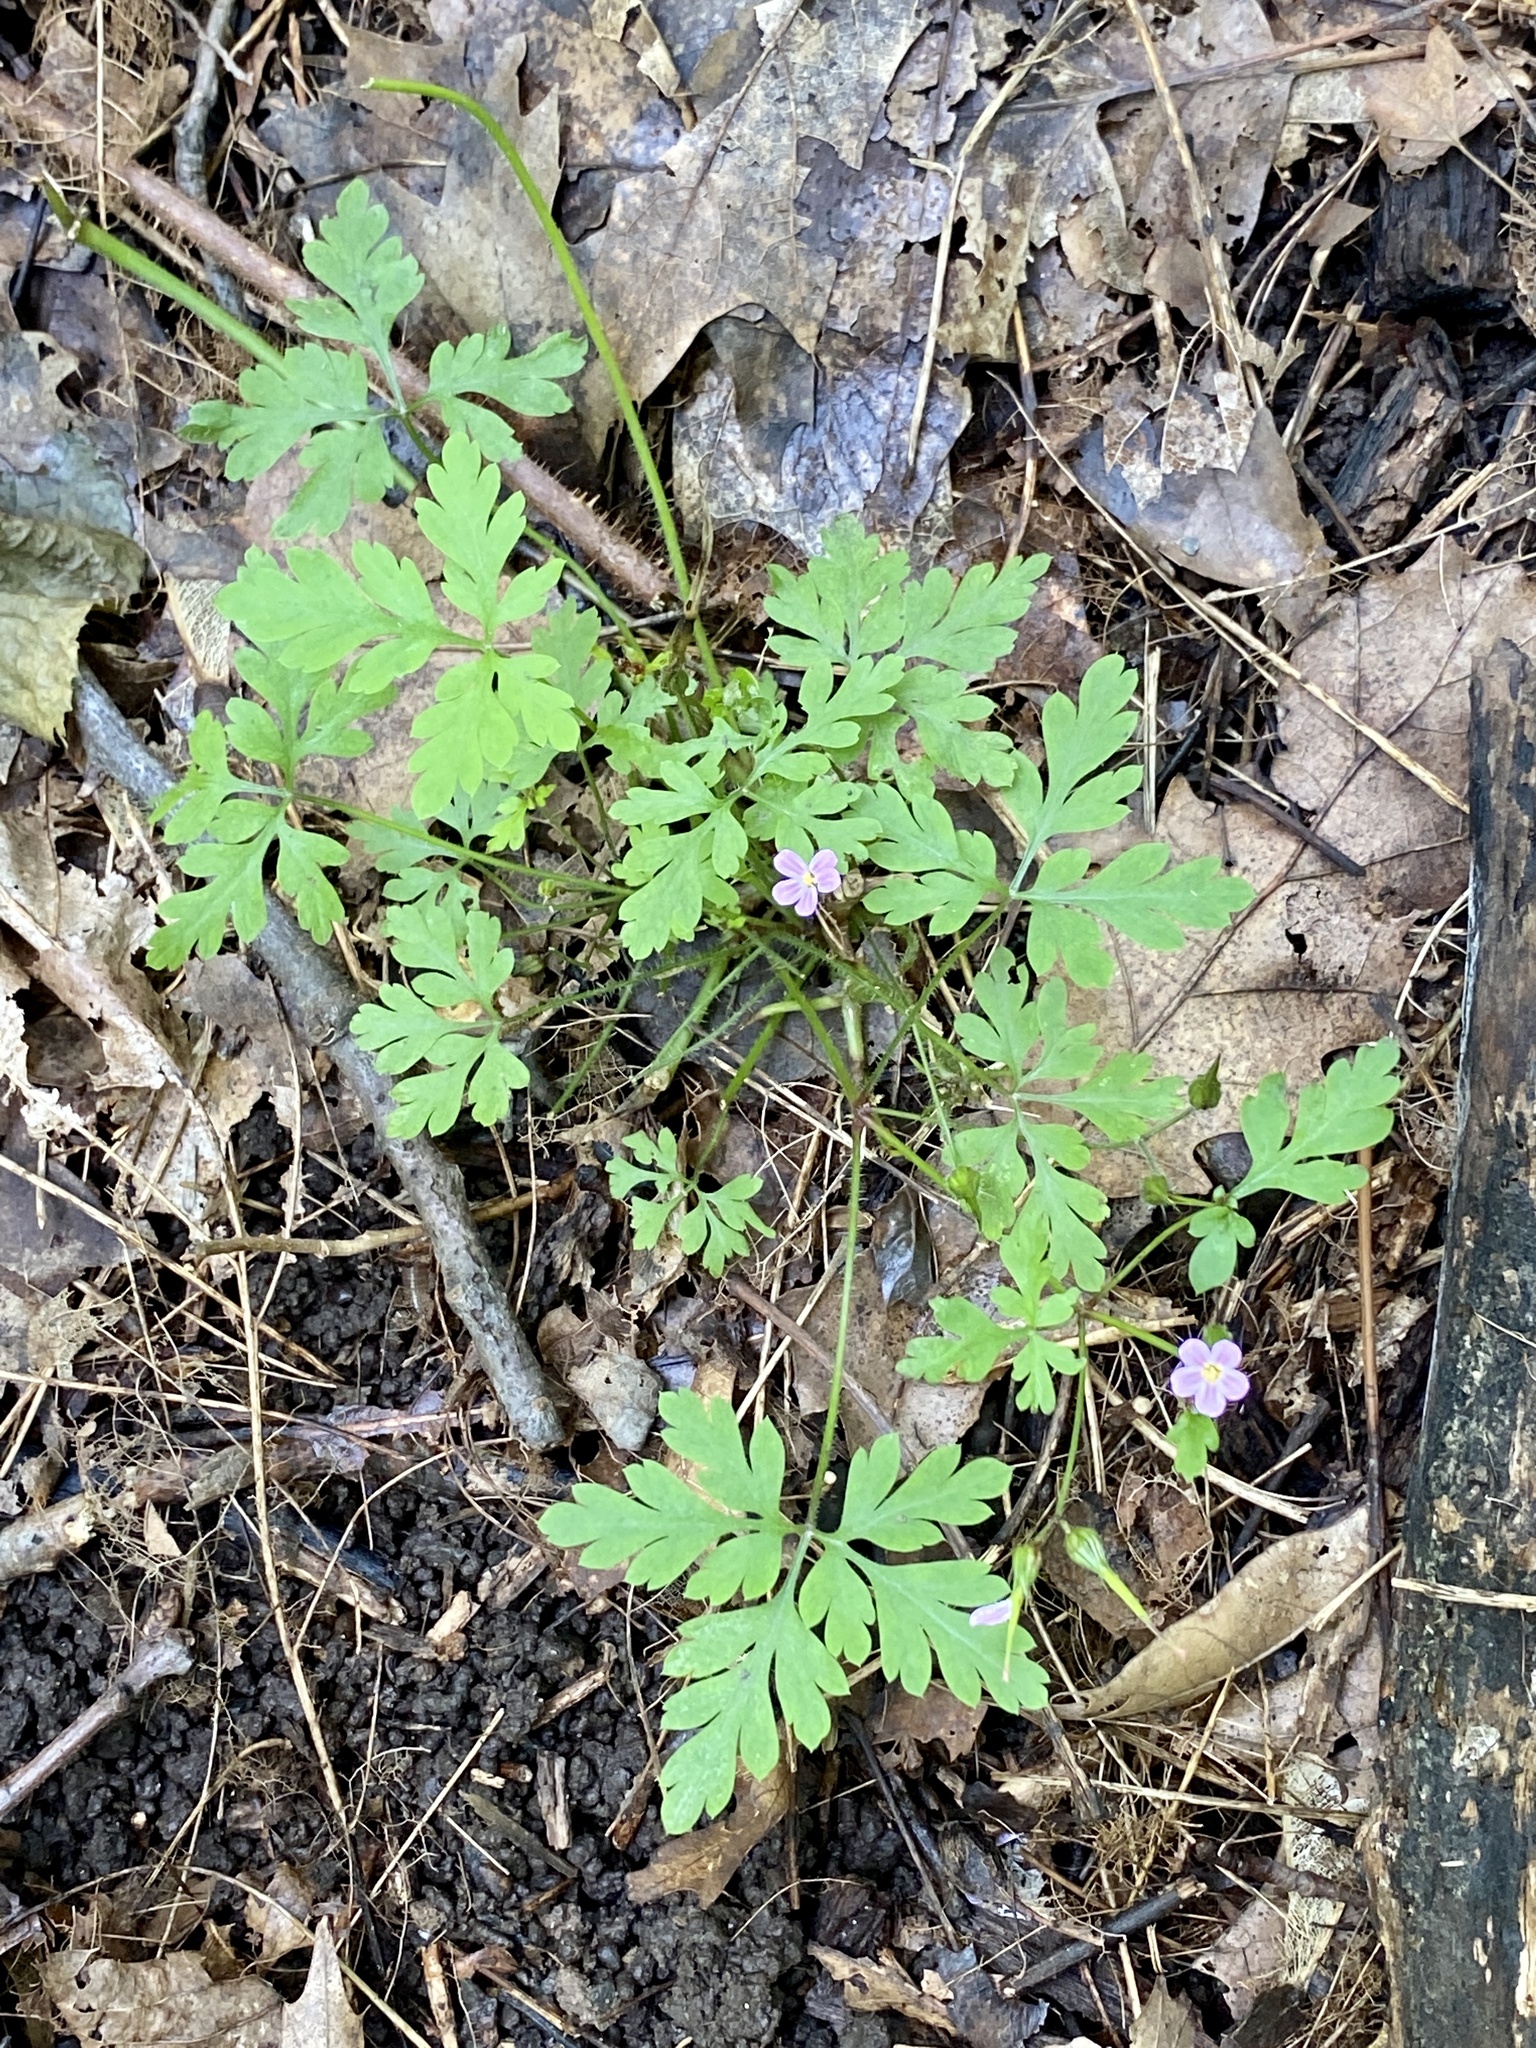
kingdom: Plantae
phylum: Tracheophyta
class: Magnoliopsida
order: Geraniales
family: Geraniaceae
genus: Geranium
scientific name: Geranium robertianum
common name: Herb-robert
